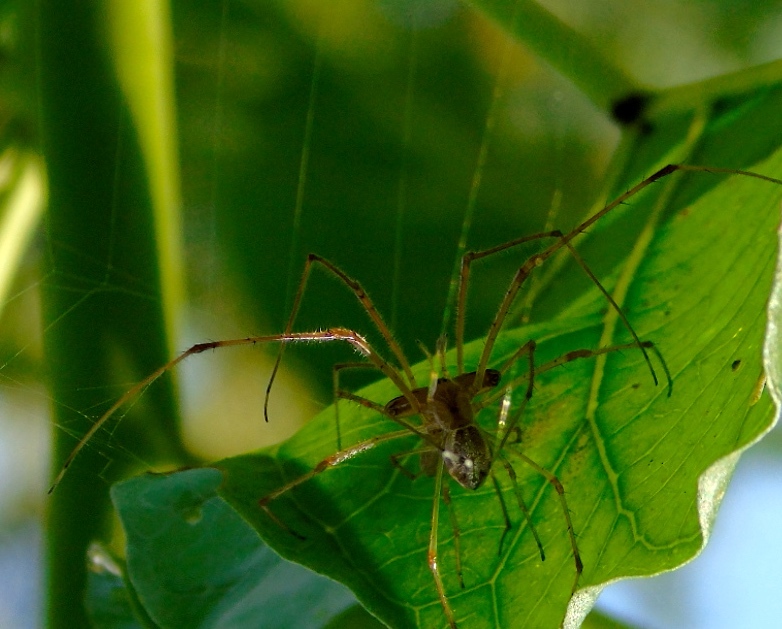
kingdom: Animalia
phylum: Arthropoda
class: Arachnida
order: Araneae
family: Tetragnathidae
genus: Tetragnatha
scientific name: Tetragnatha
